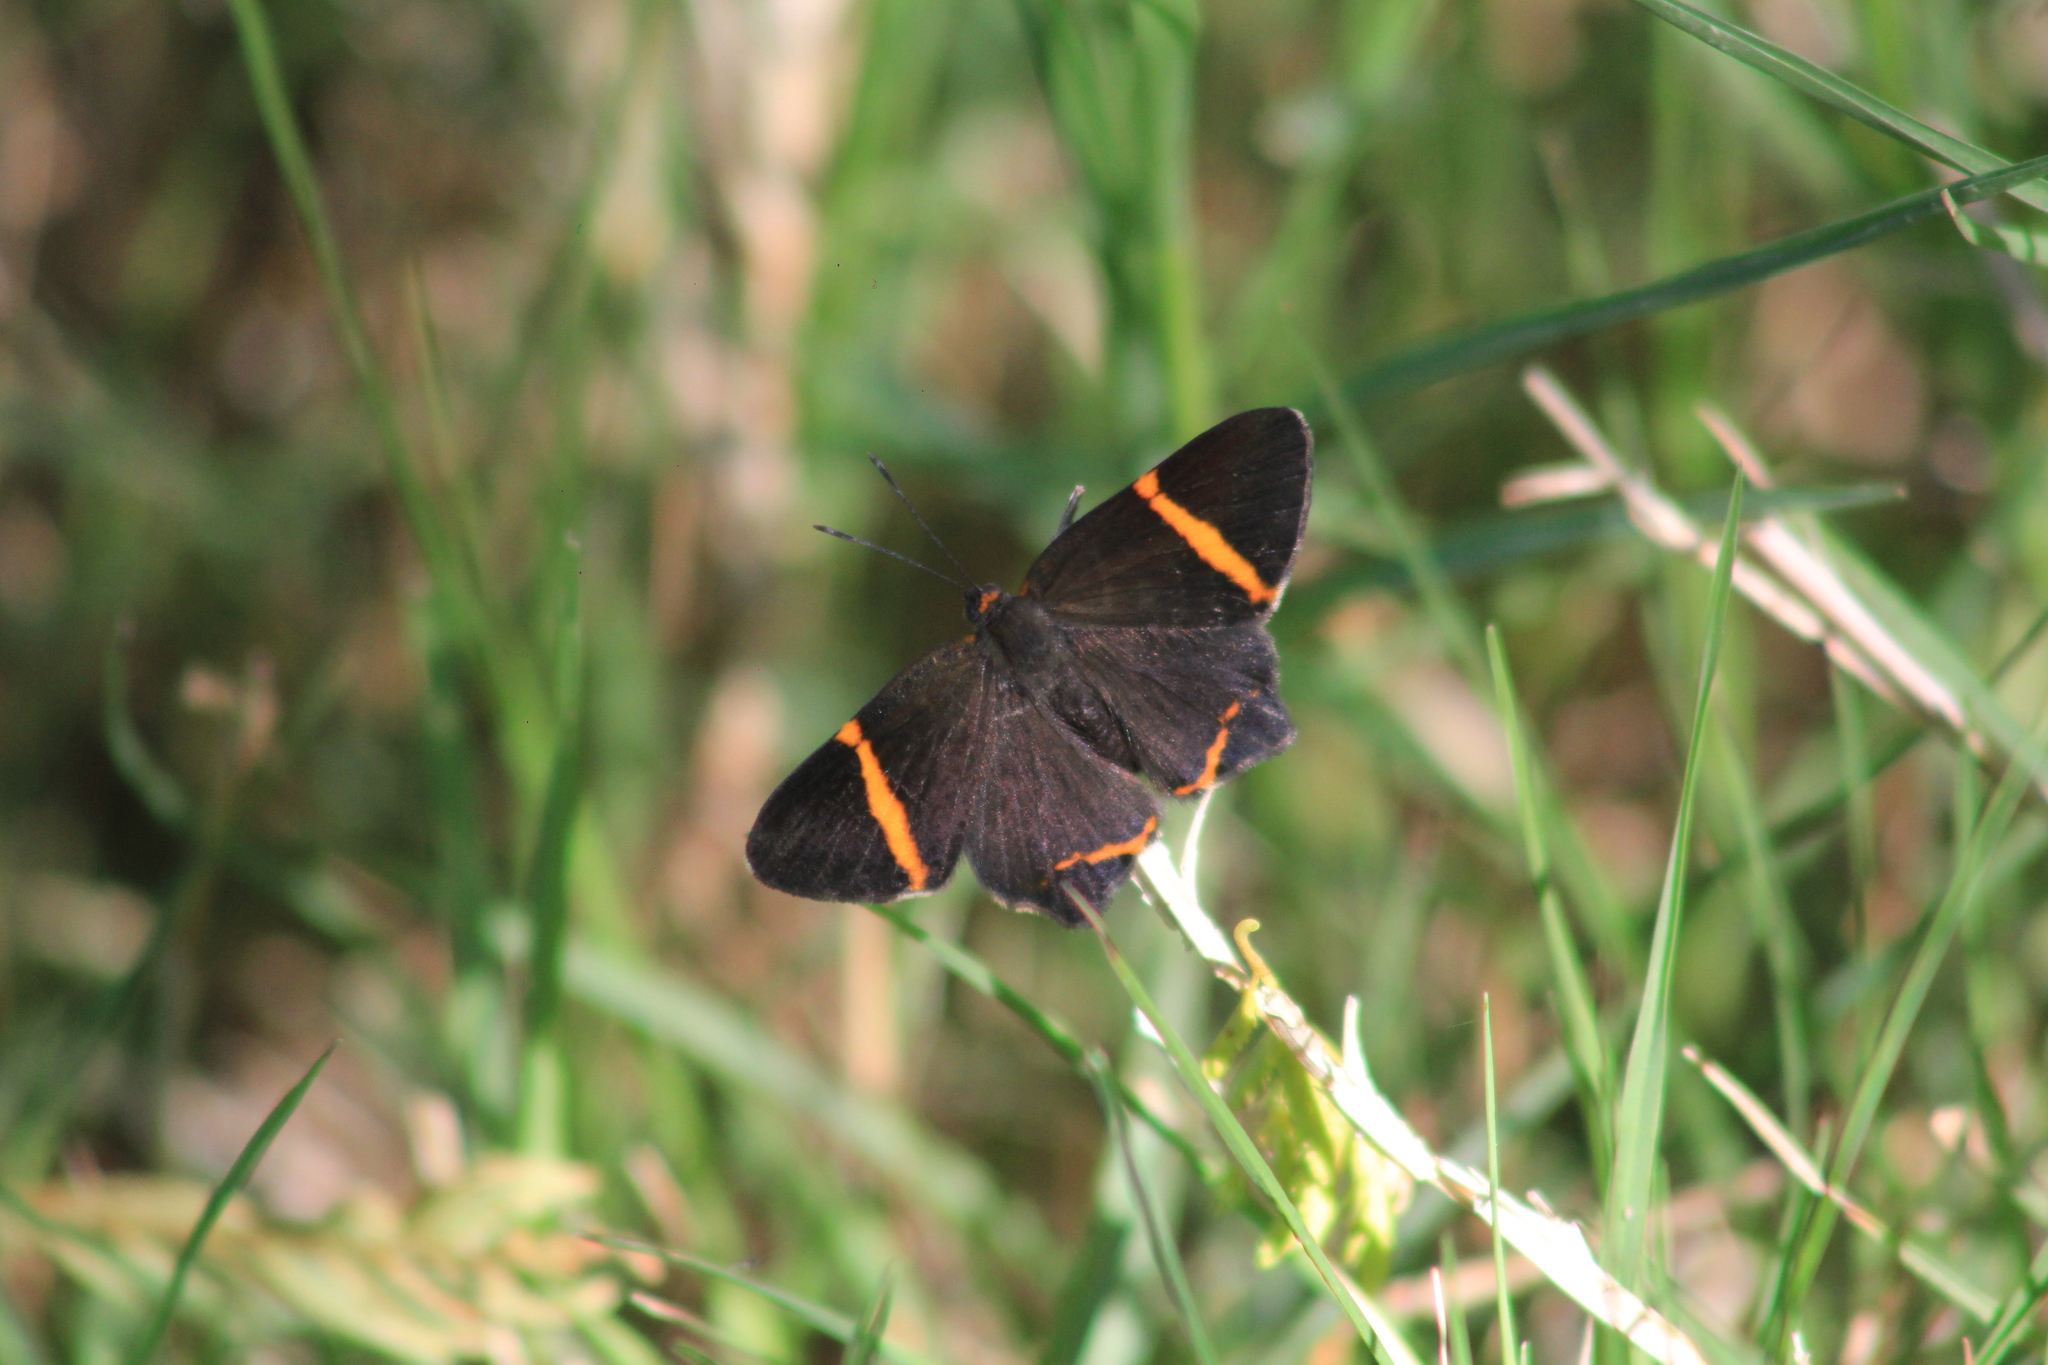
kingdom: Animalia
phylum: Arthropoda
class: Insecta
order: Lepidoptera
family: Riodinidae
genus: Riodina
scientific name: Riodina lysippoides
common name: Little dancer metalmark
